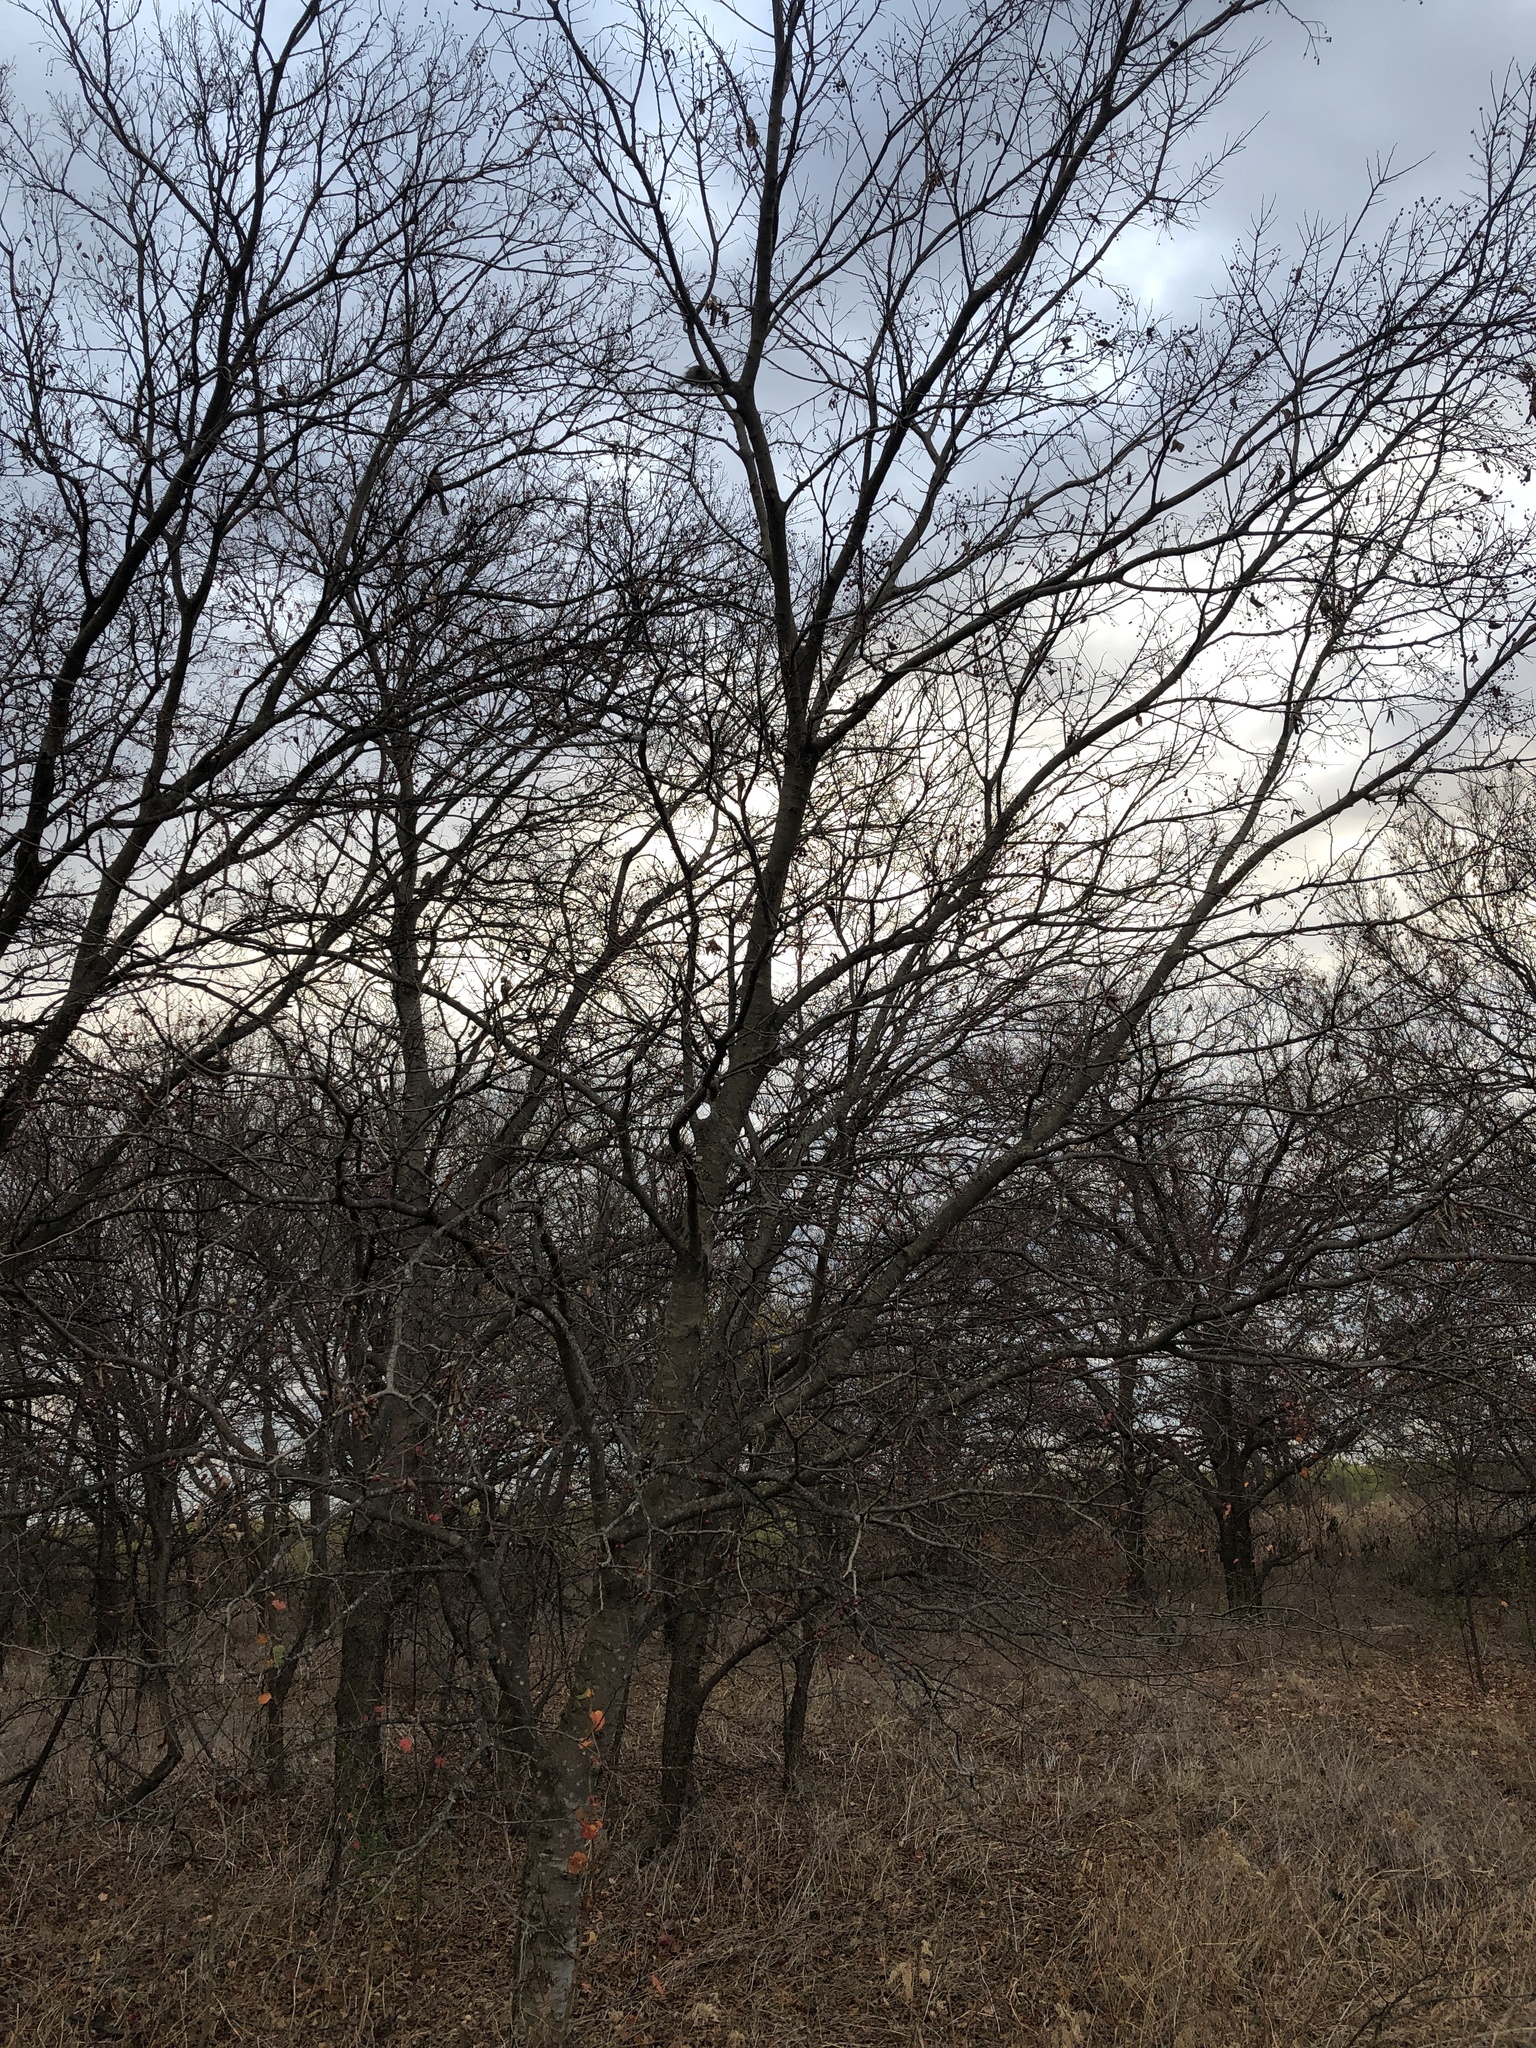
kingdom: Plantae
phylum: Tracheophyta
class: Magnoliopsida
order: Rosales
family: Cannabaceae
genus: Celtis
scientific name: Celtis laevigata
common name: Sugarberry
